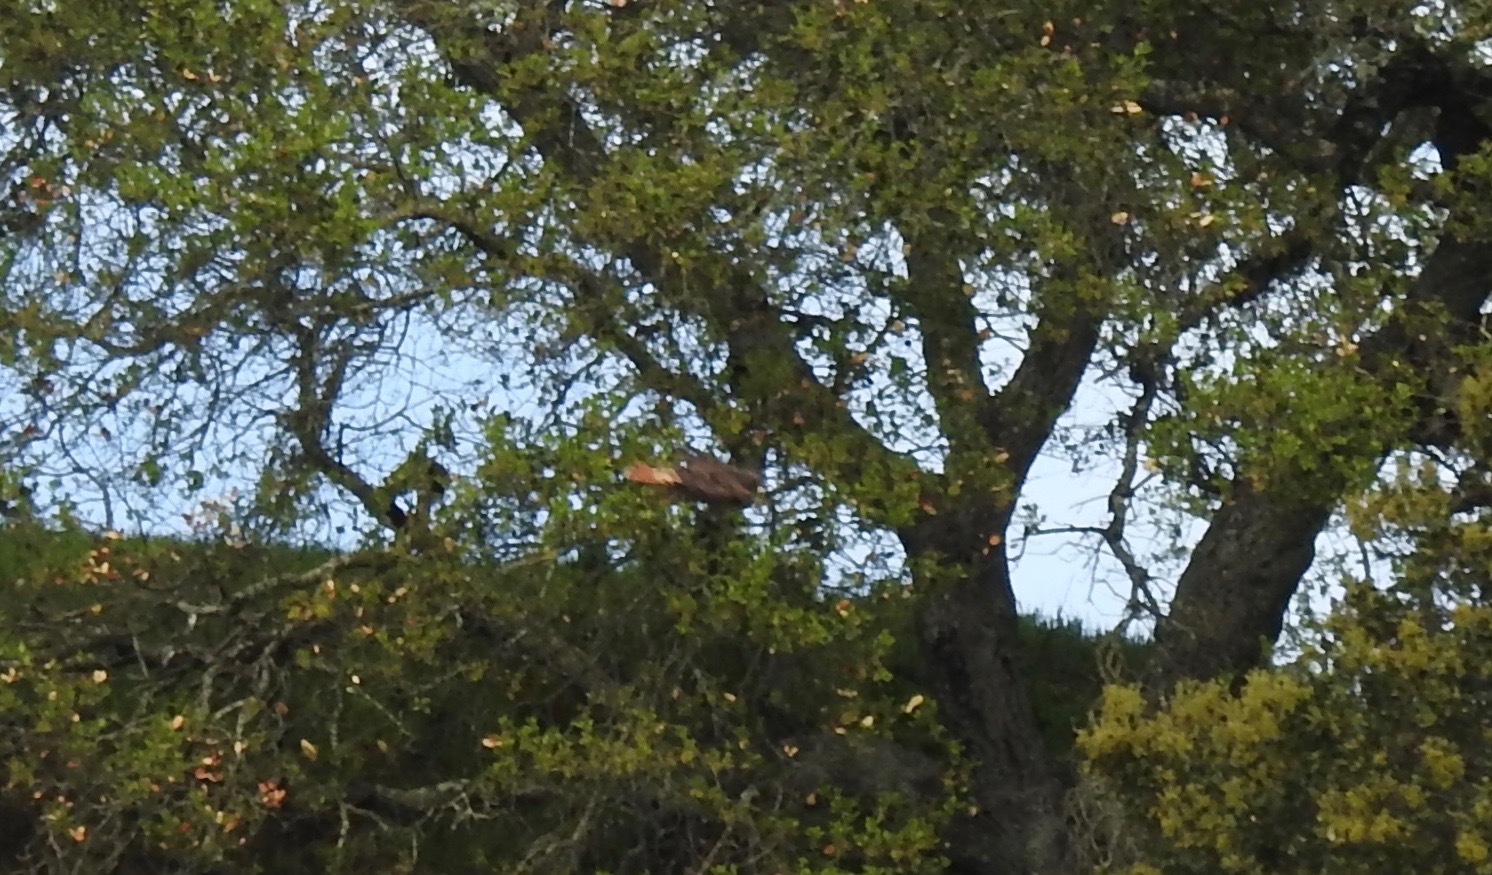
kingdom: Animalia
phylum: Chordata
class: Aves
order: Accipitriformes
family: Accipitridae
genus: Buteo
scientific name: Buteo jamaicensis
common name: Red-tailed hawk
